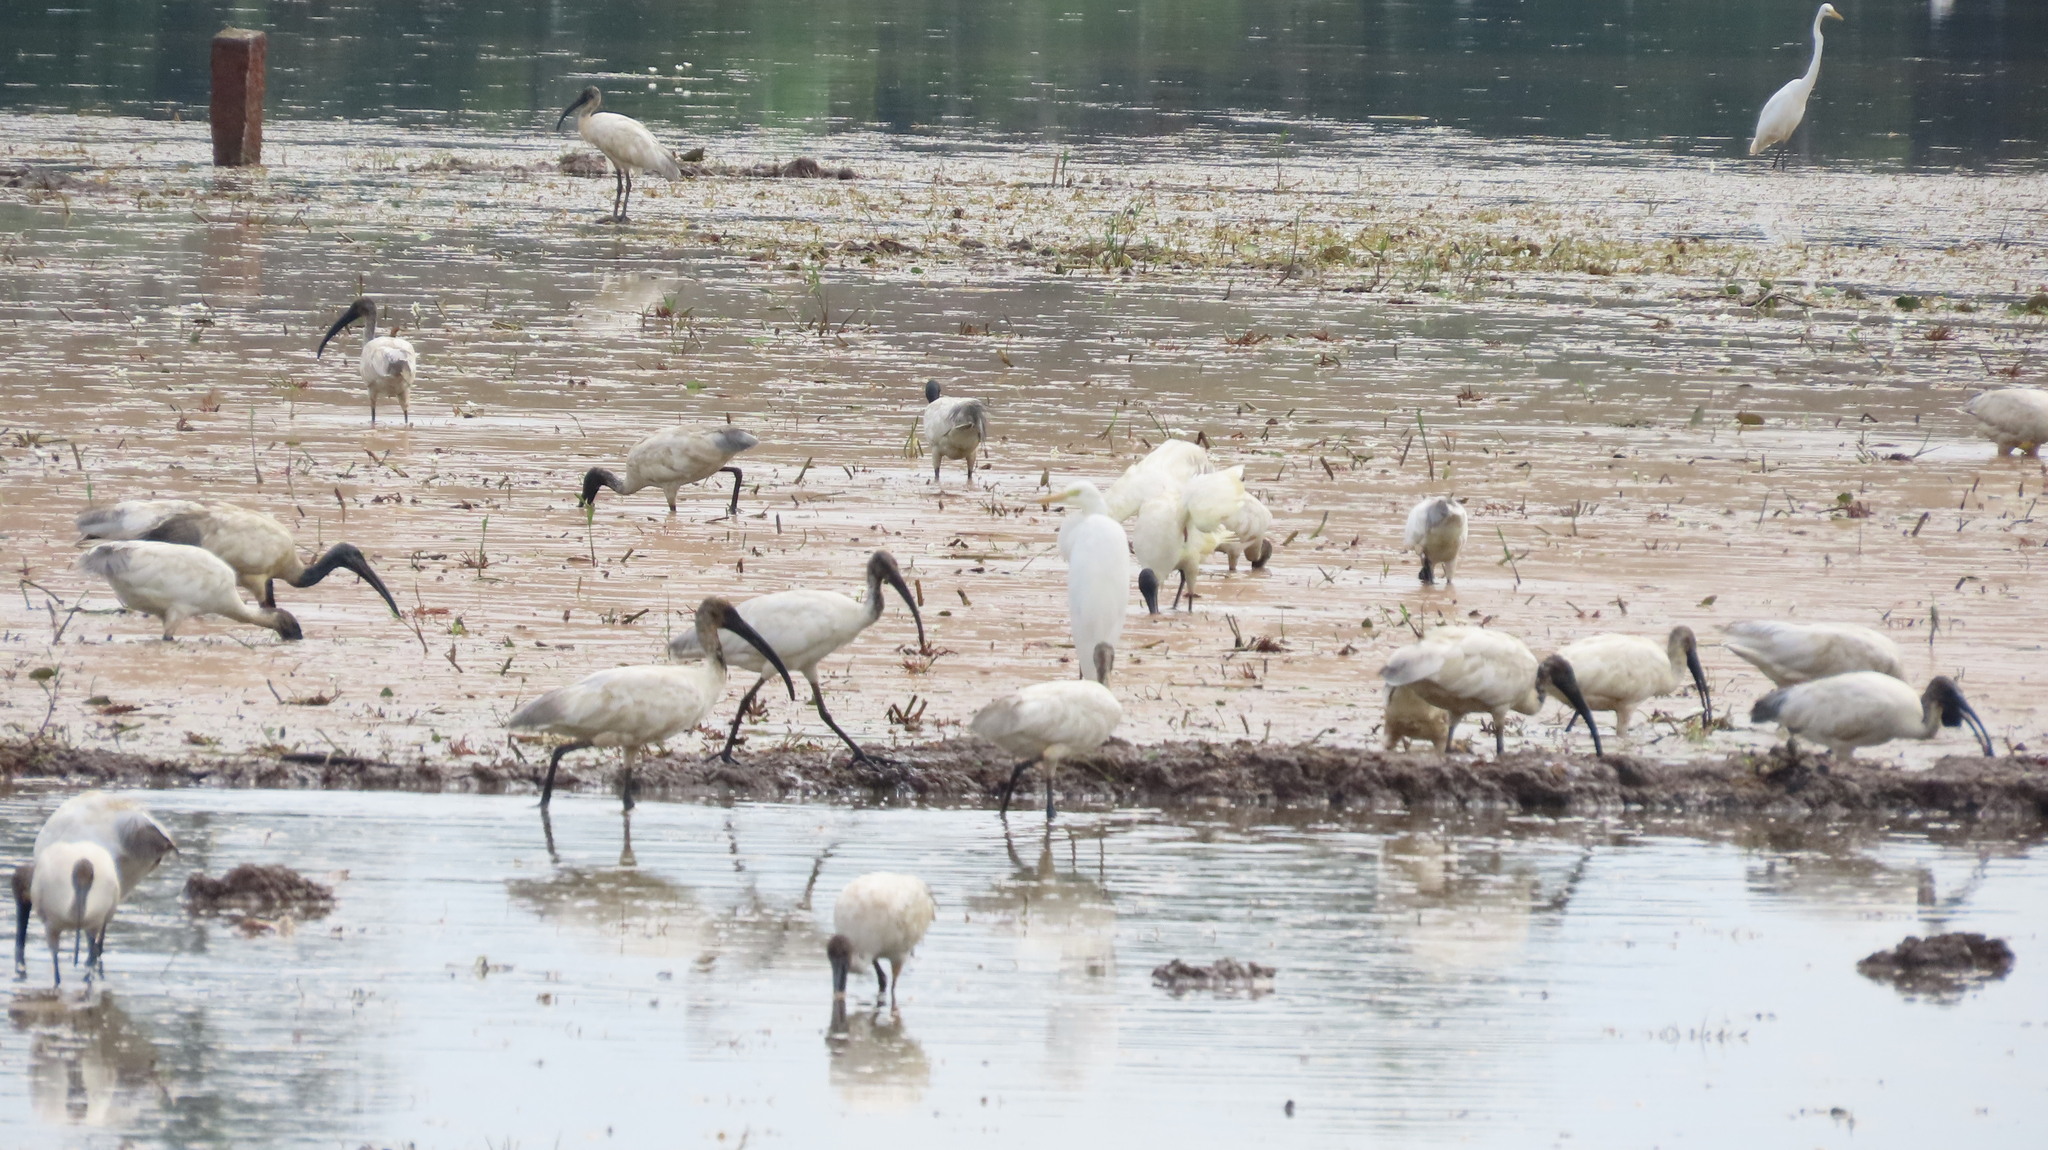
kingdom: Animalia
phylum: Chordata
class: Aves
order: Pelecaniformes
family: Threskiornithidae
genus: Threskiornis
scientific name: Threskiornis melanocephalus
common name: Black-headed ibis
